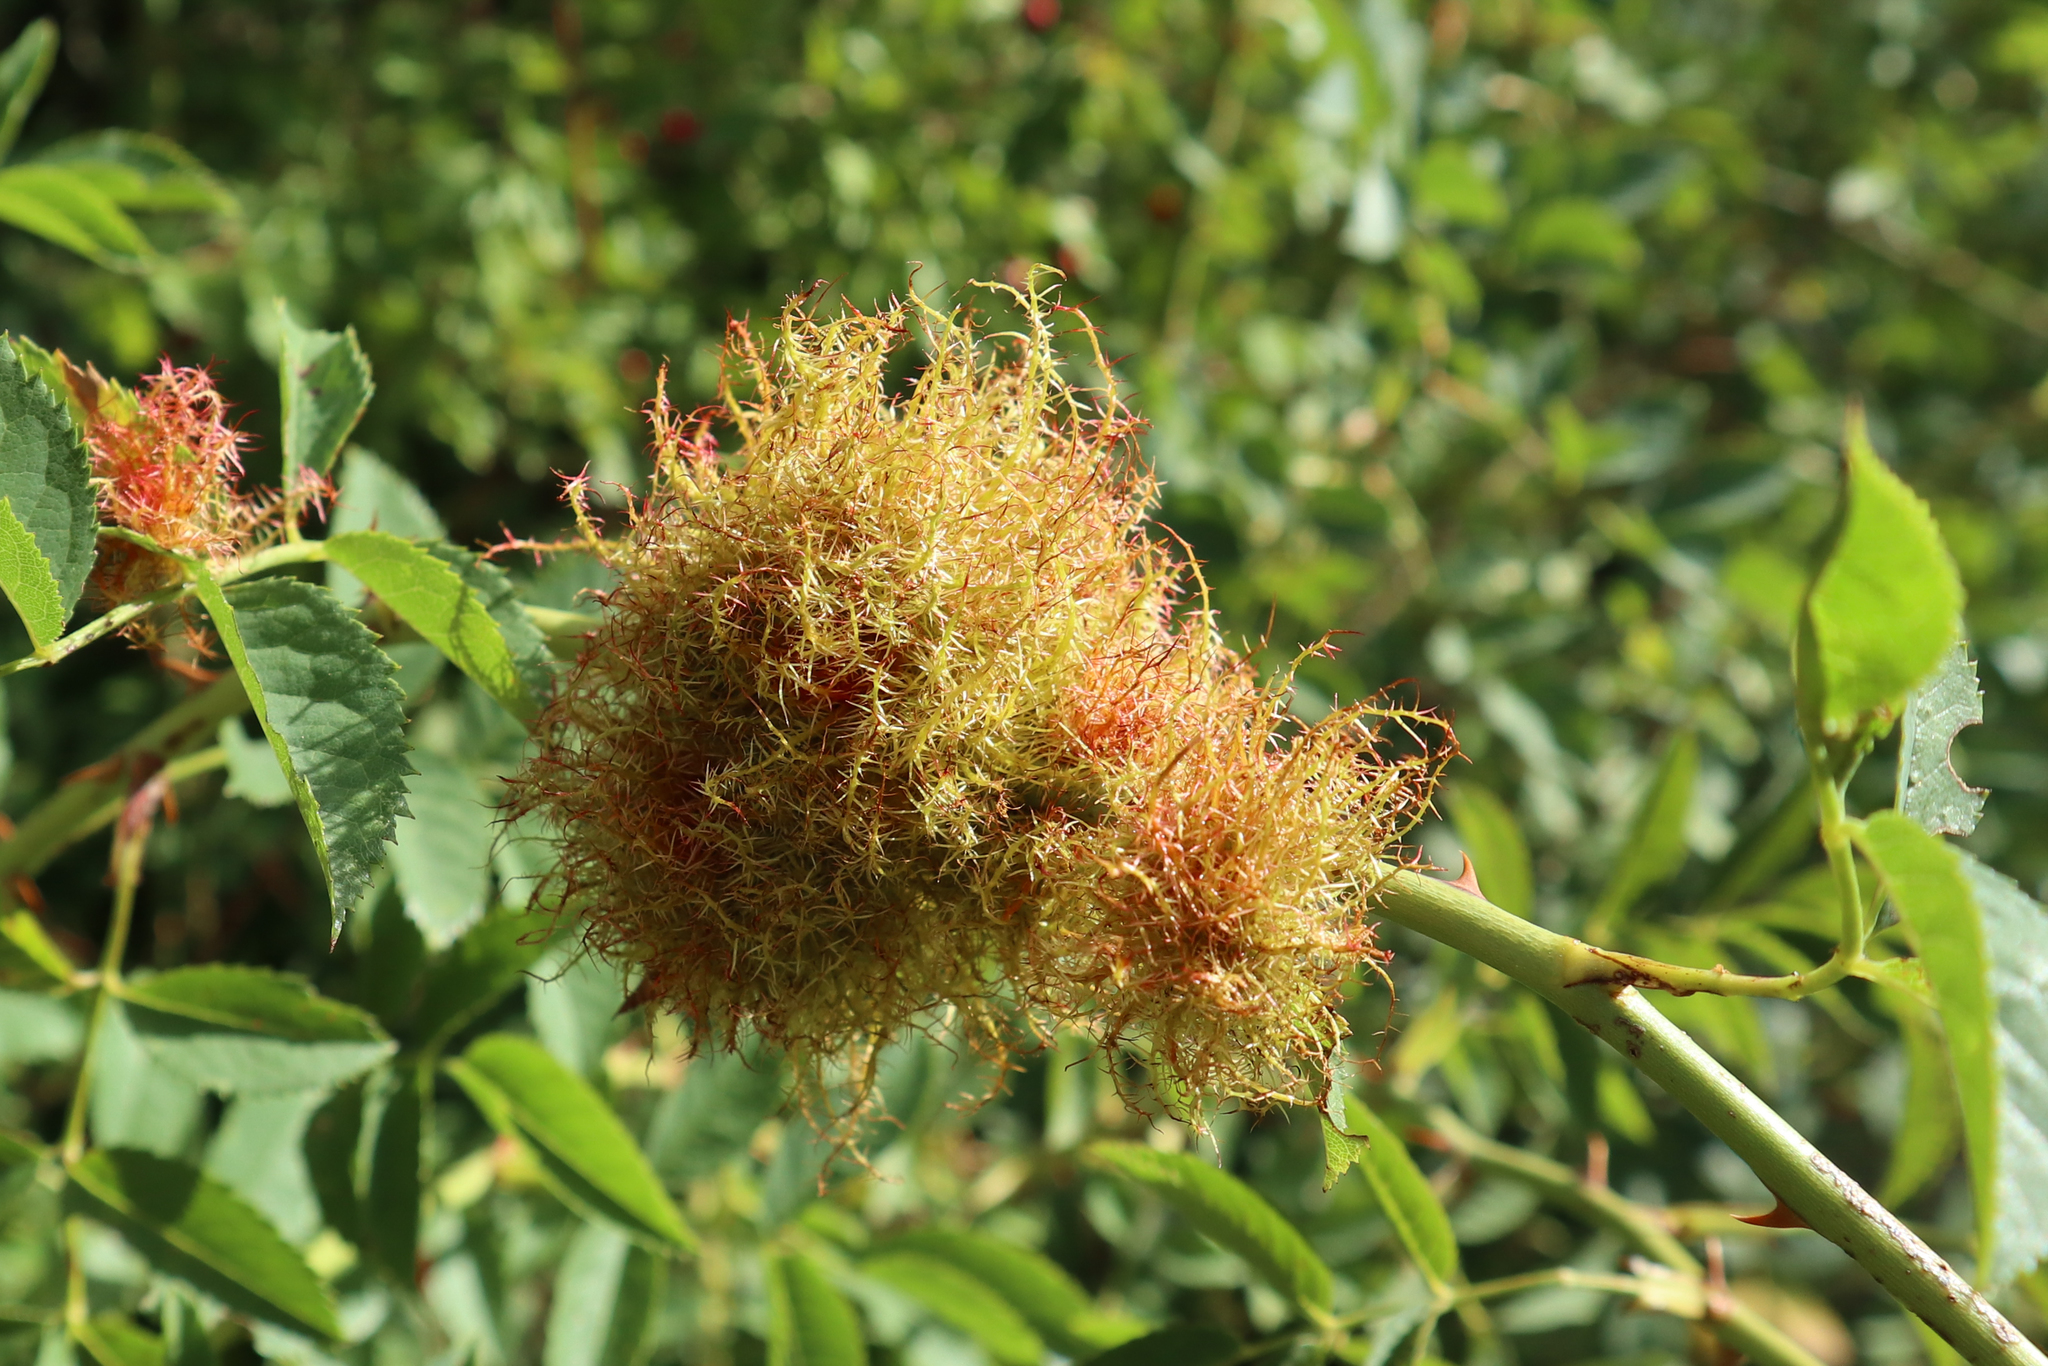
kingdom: Animalia
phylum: Arthropoda
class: Insecta
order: Hymenoptera
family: Cynipidae
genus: Diplolepis
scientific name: Diplolepis rosae
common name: Bedeguar gall
